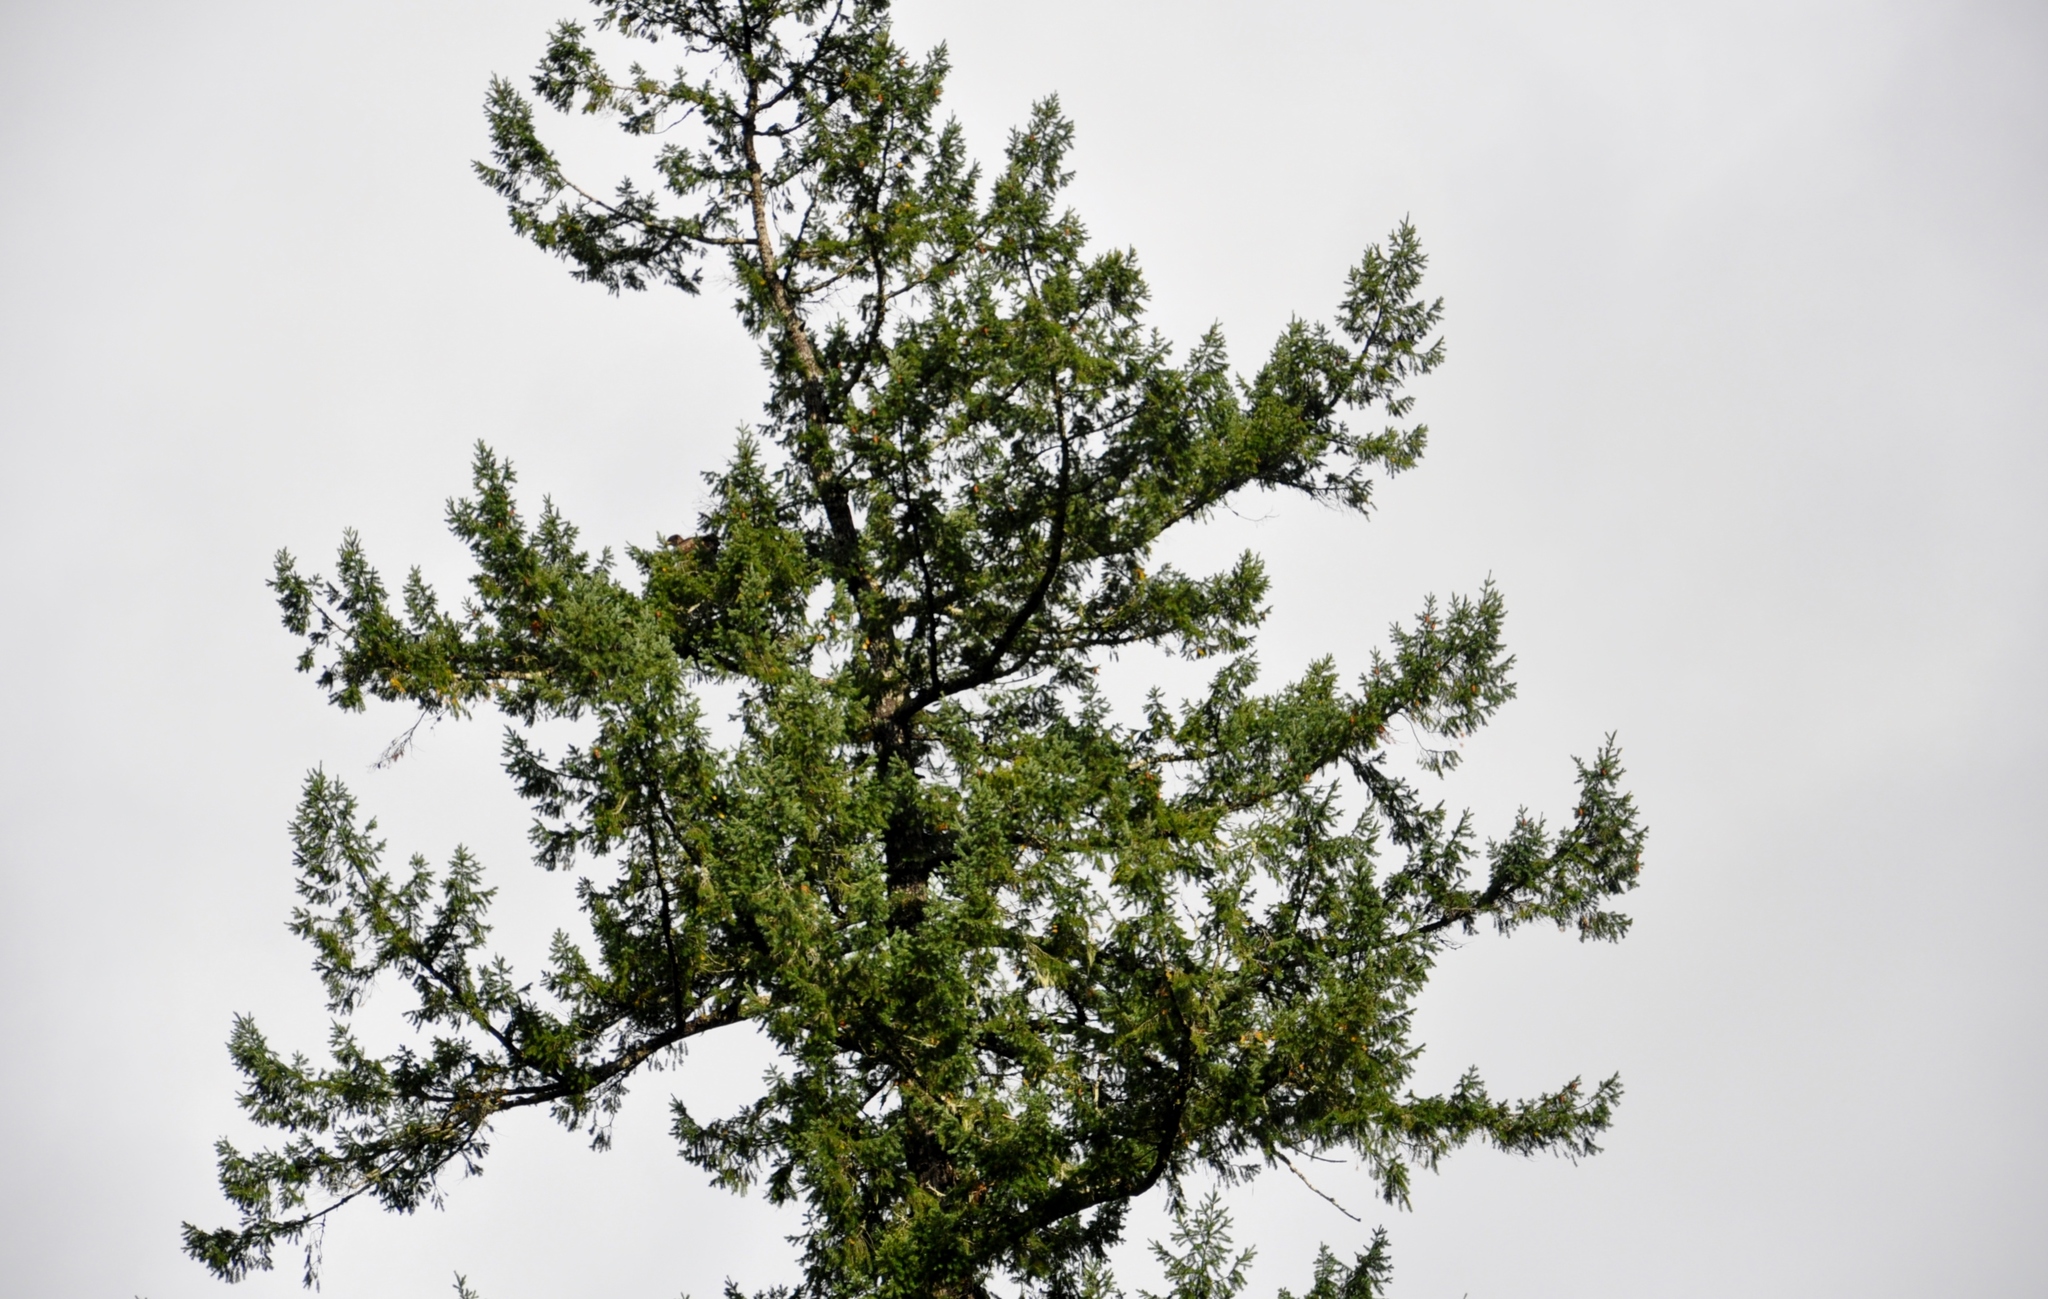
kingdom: Plantae
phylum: Tracheophyta
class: Pinopsida
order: Pinales
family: Pinaceae
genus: Pseudotsuga
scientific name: Pseudotsuga menziesii
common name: Douglas fir
